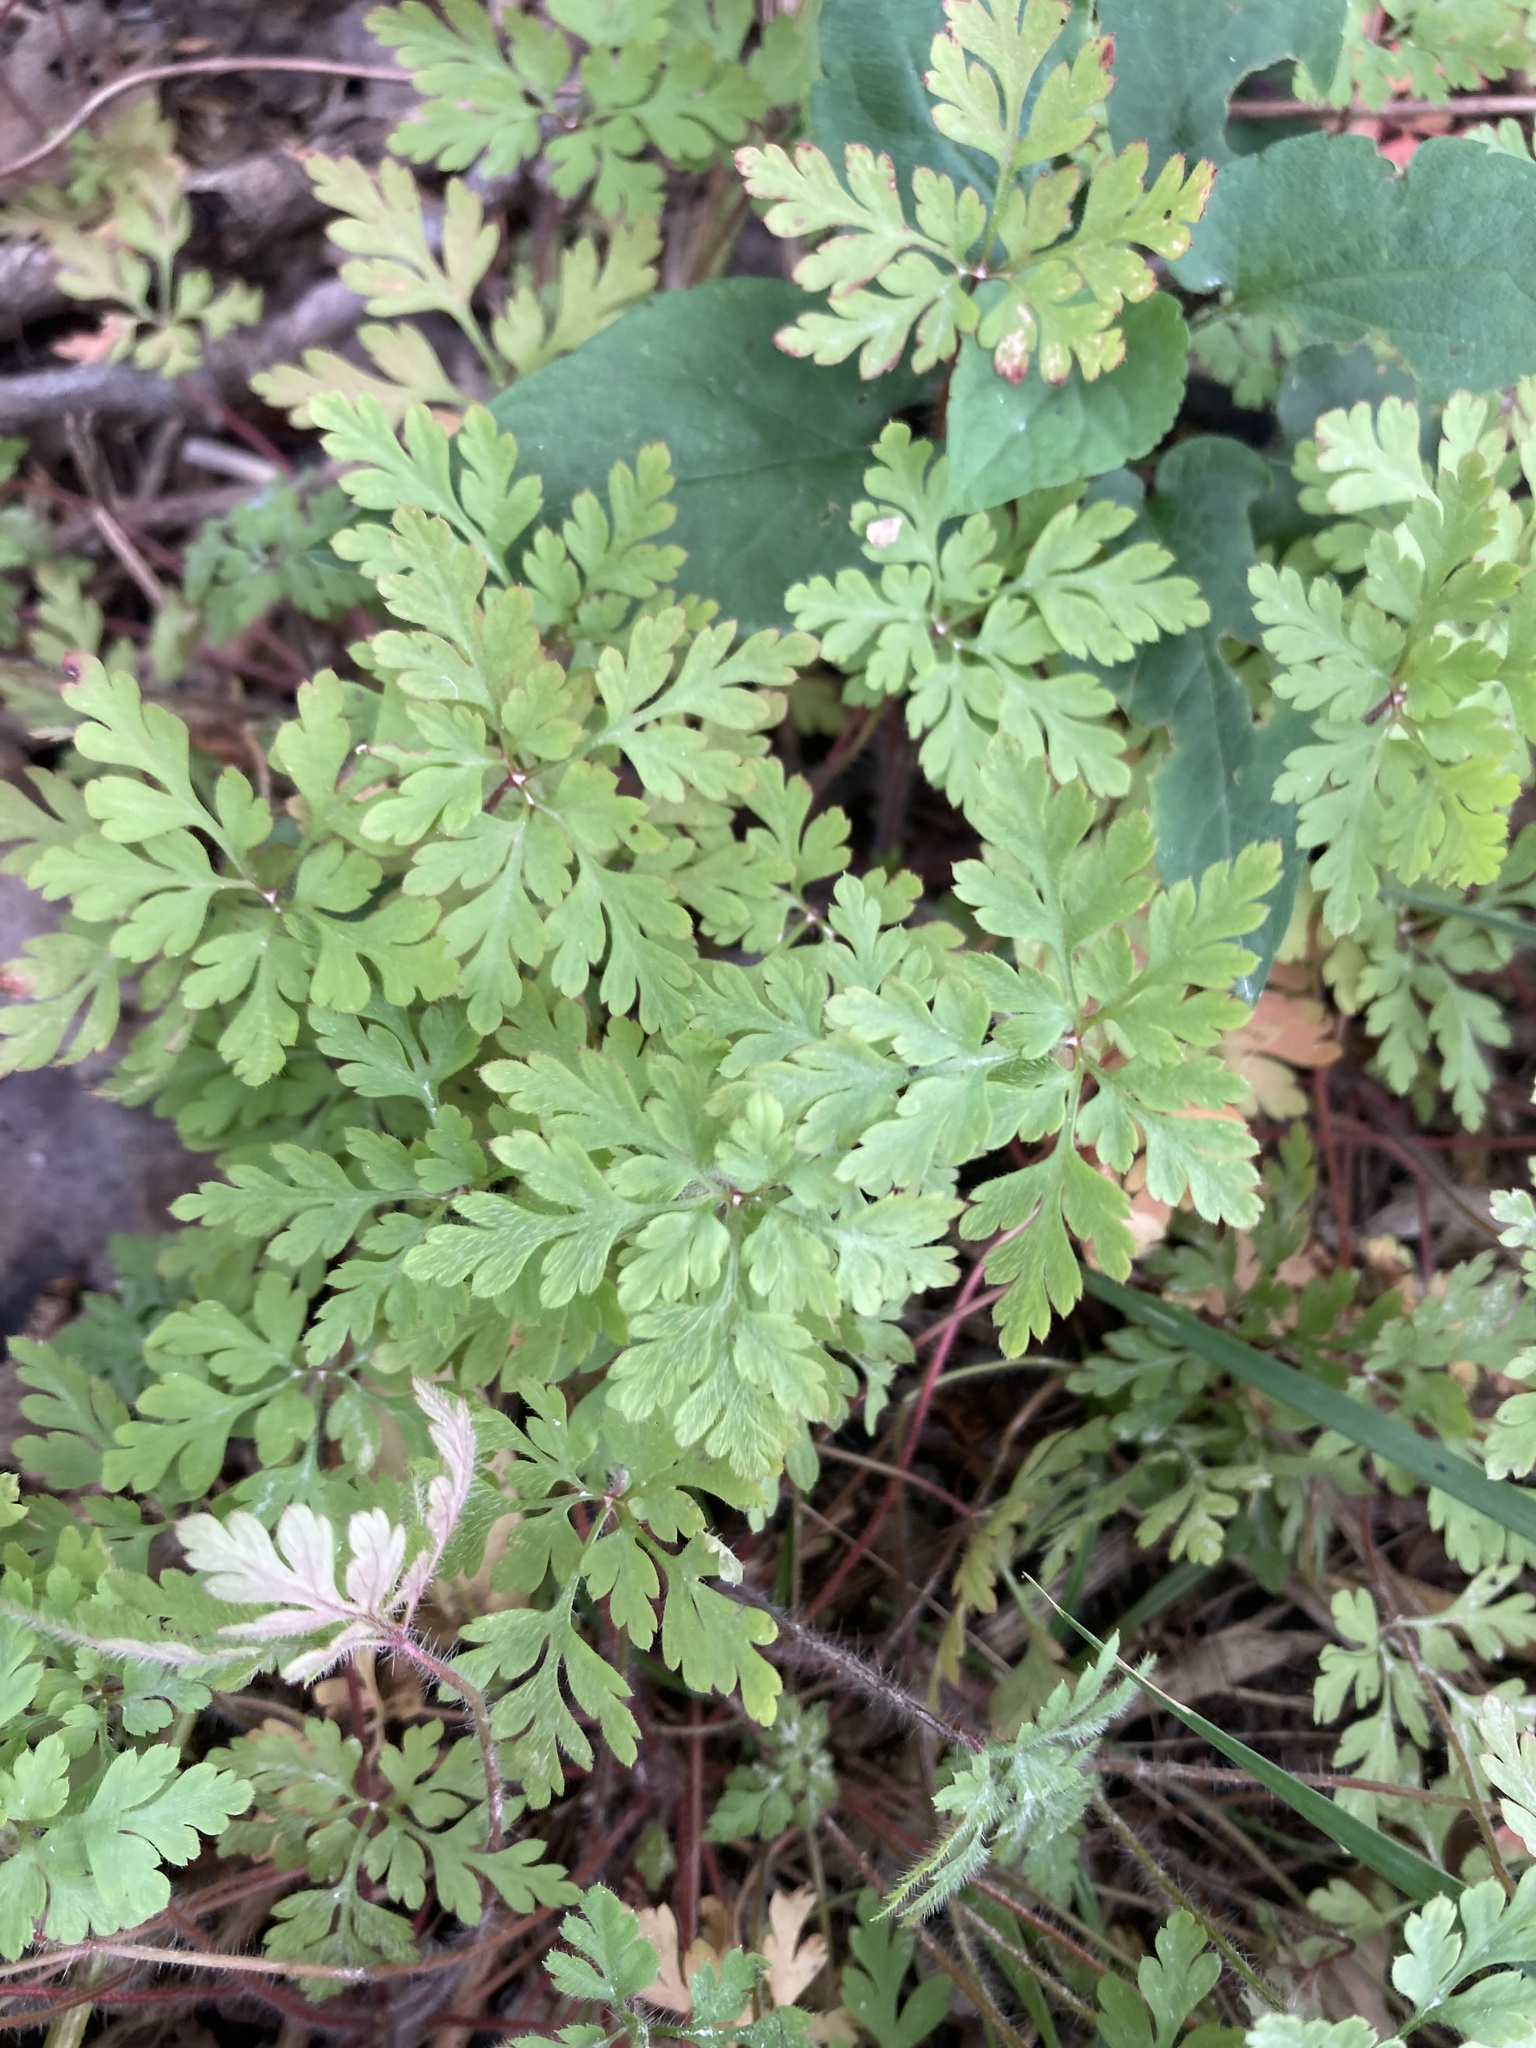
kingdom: Plantae
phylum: Tracheophyta
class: Magnoliopsida
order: Geraniales
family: Geraniaceae
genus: Geranium
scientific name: Geranium robertianum
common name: Herb-robert
